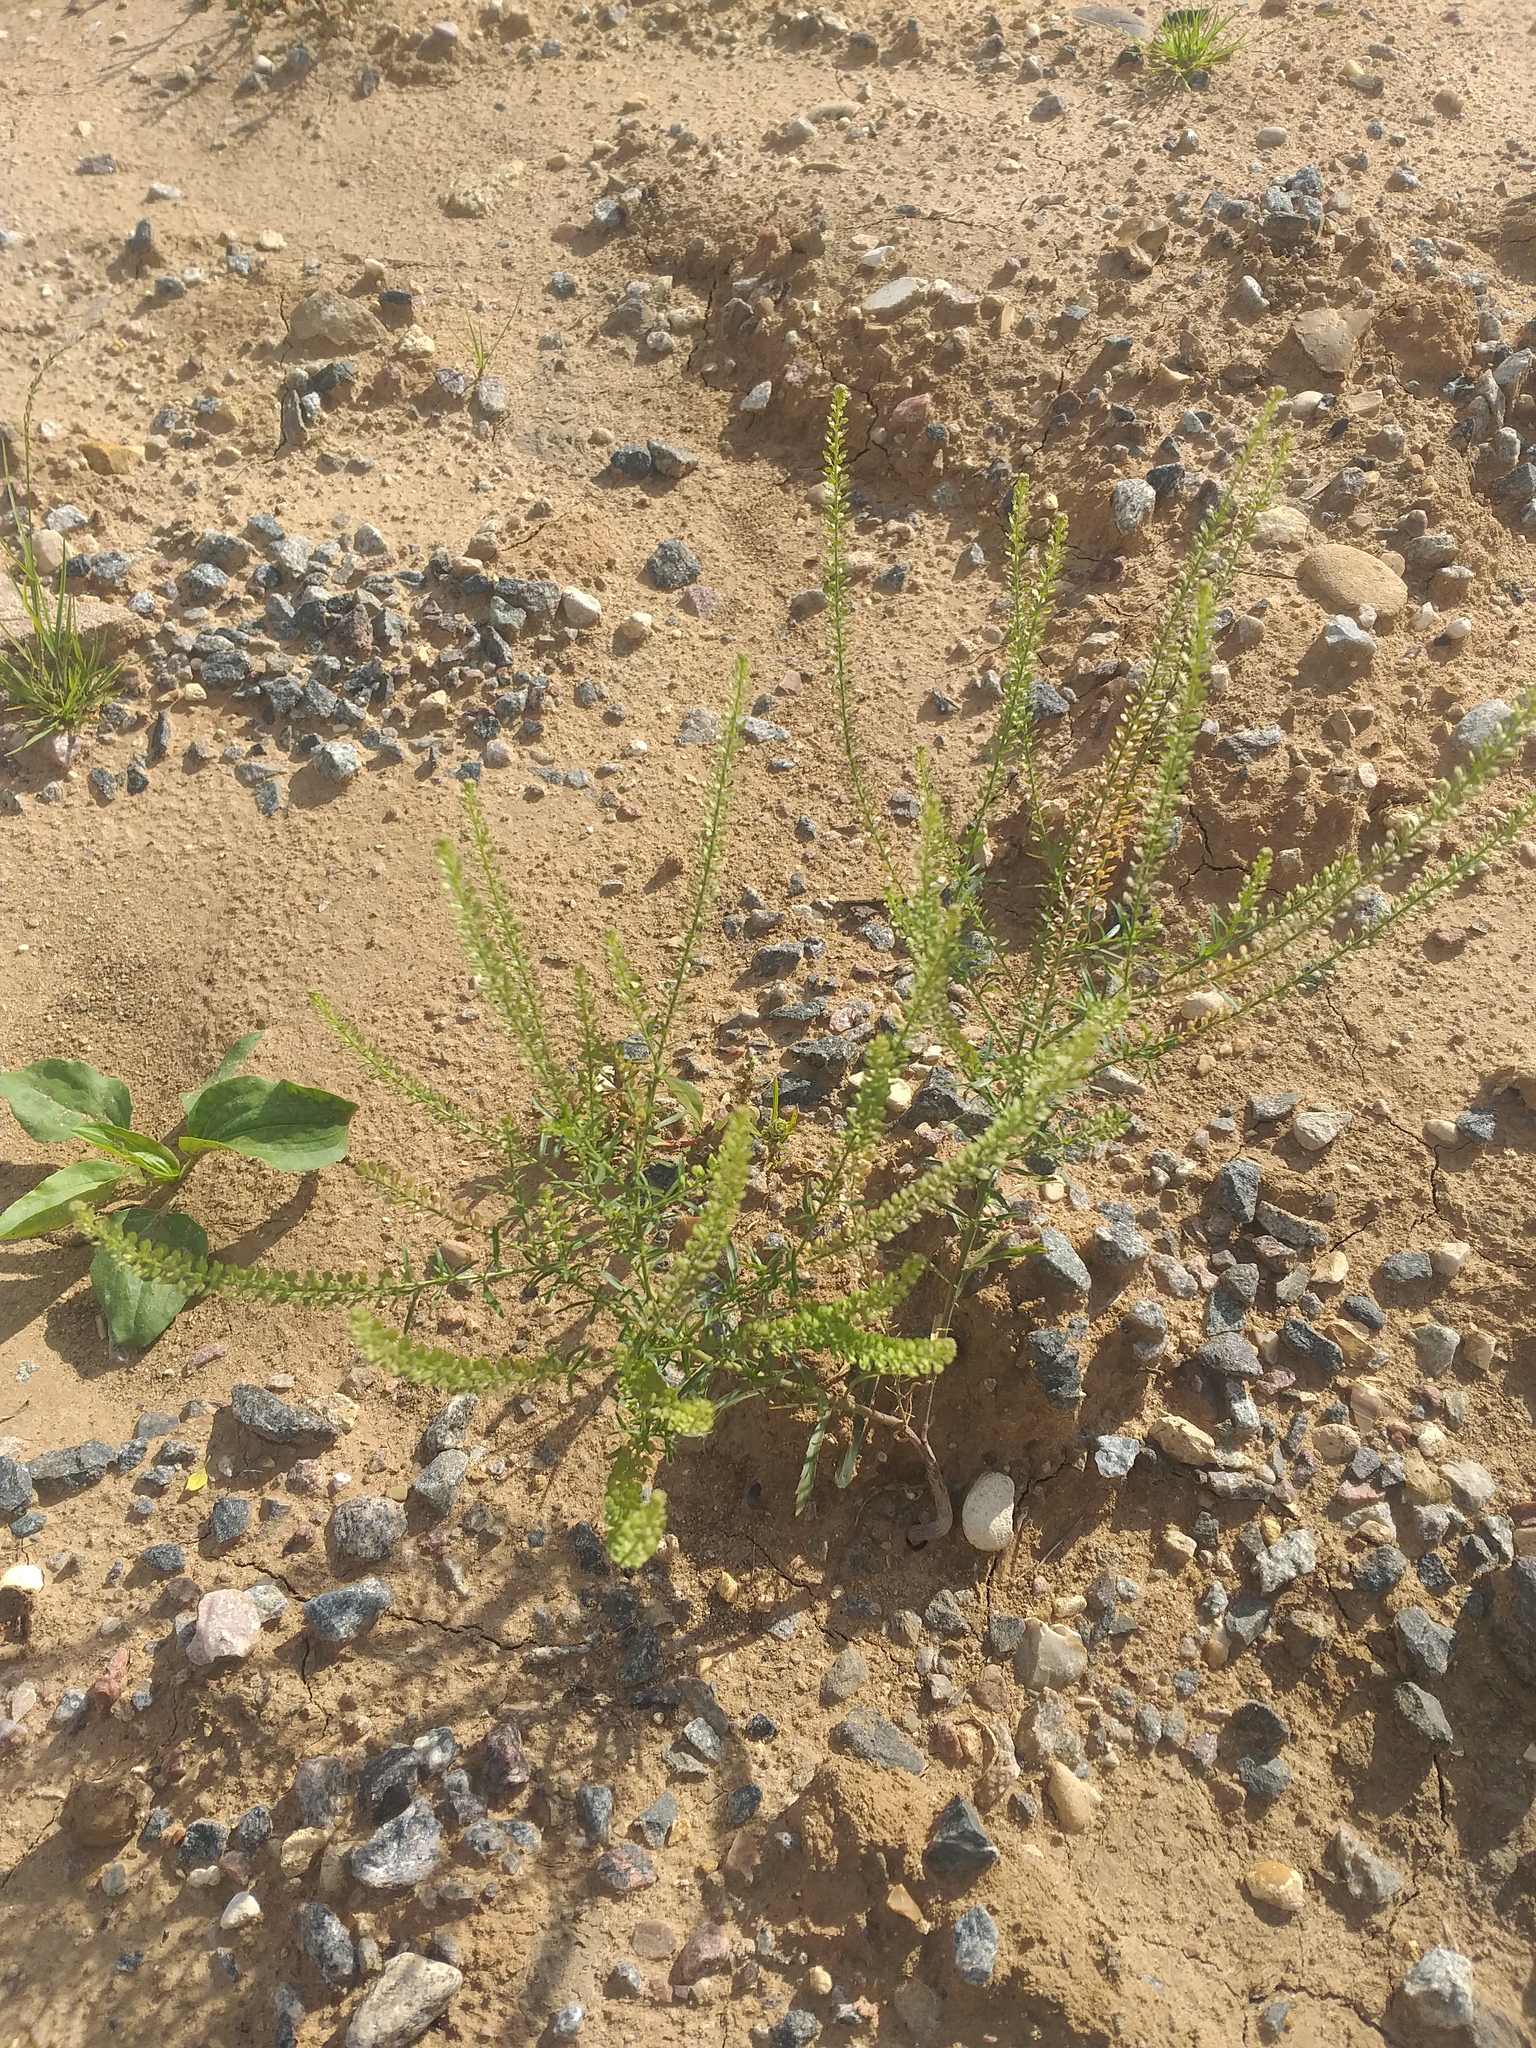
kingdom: Plantae
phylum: Tracheophyta
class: Magnoliopsida
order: Brassicales
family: Brassicaceae
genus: Lepidium
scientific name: Lepidium densiflorum
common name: Miner's pepperwort
